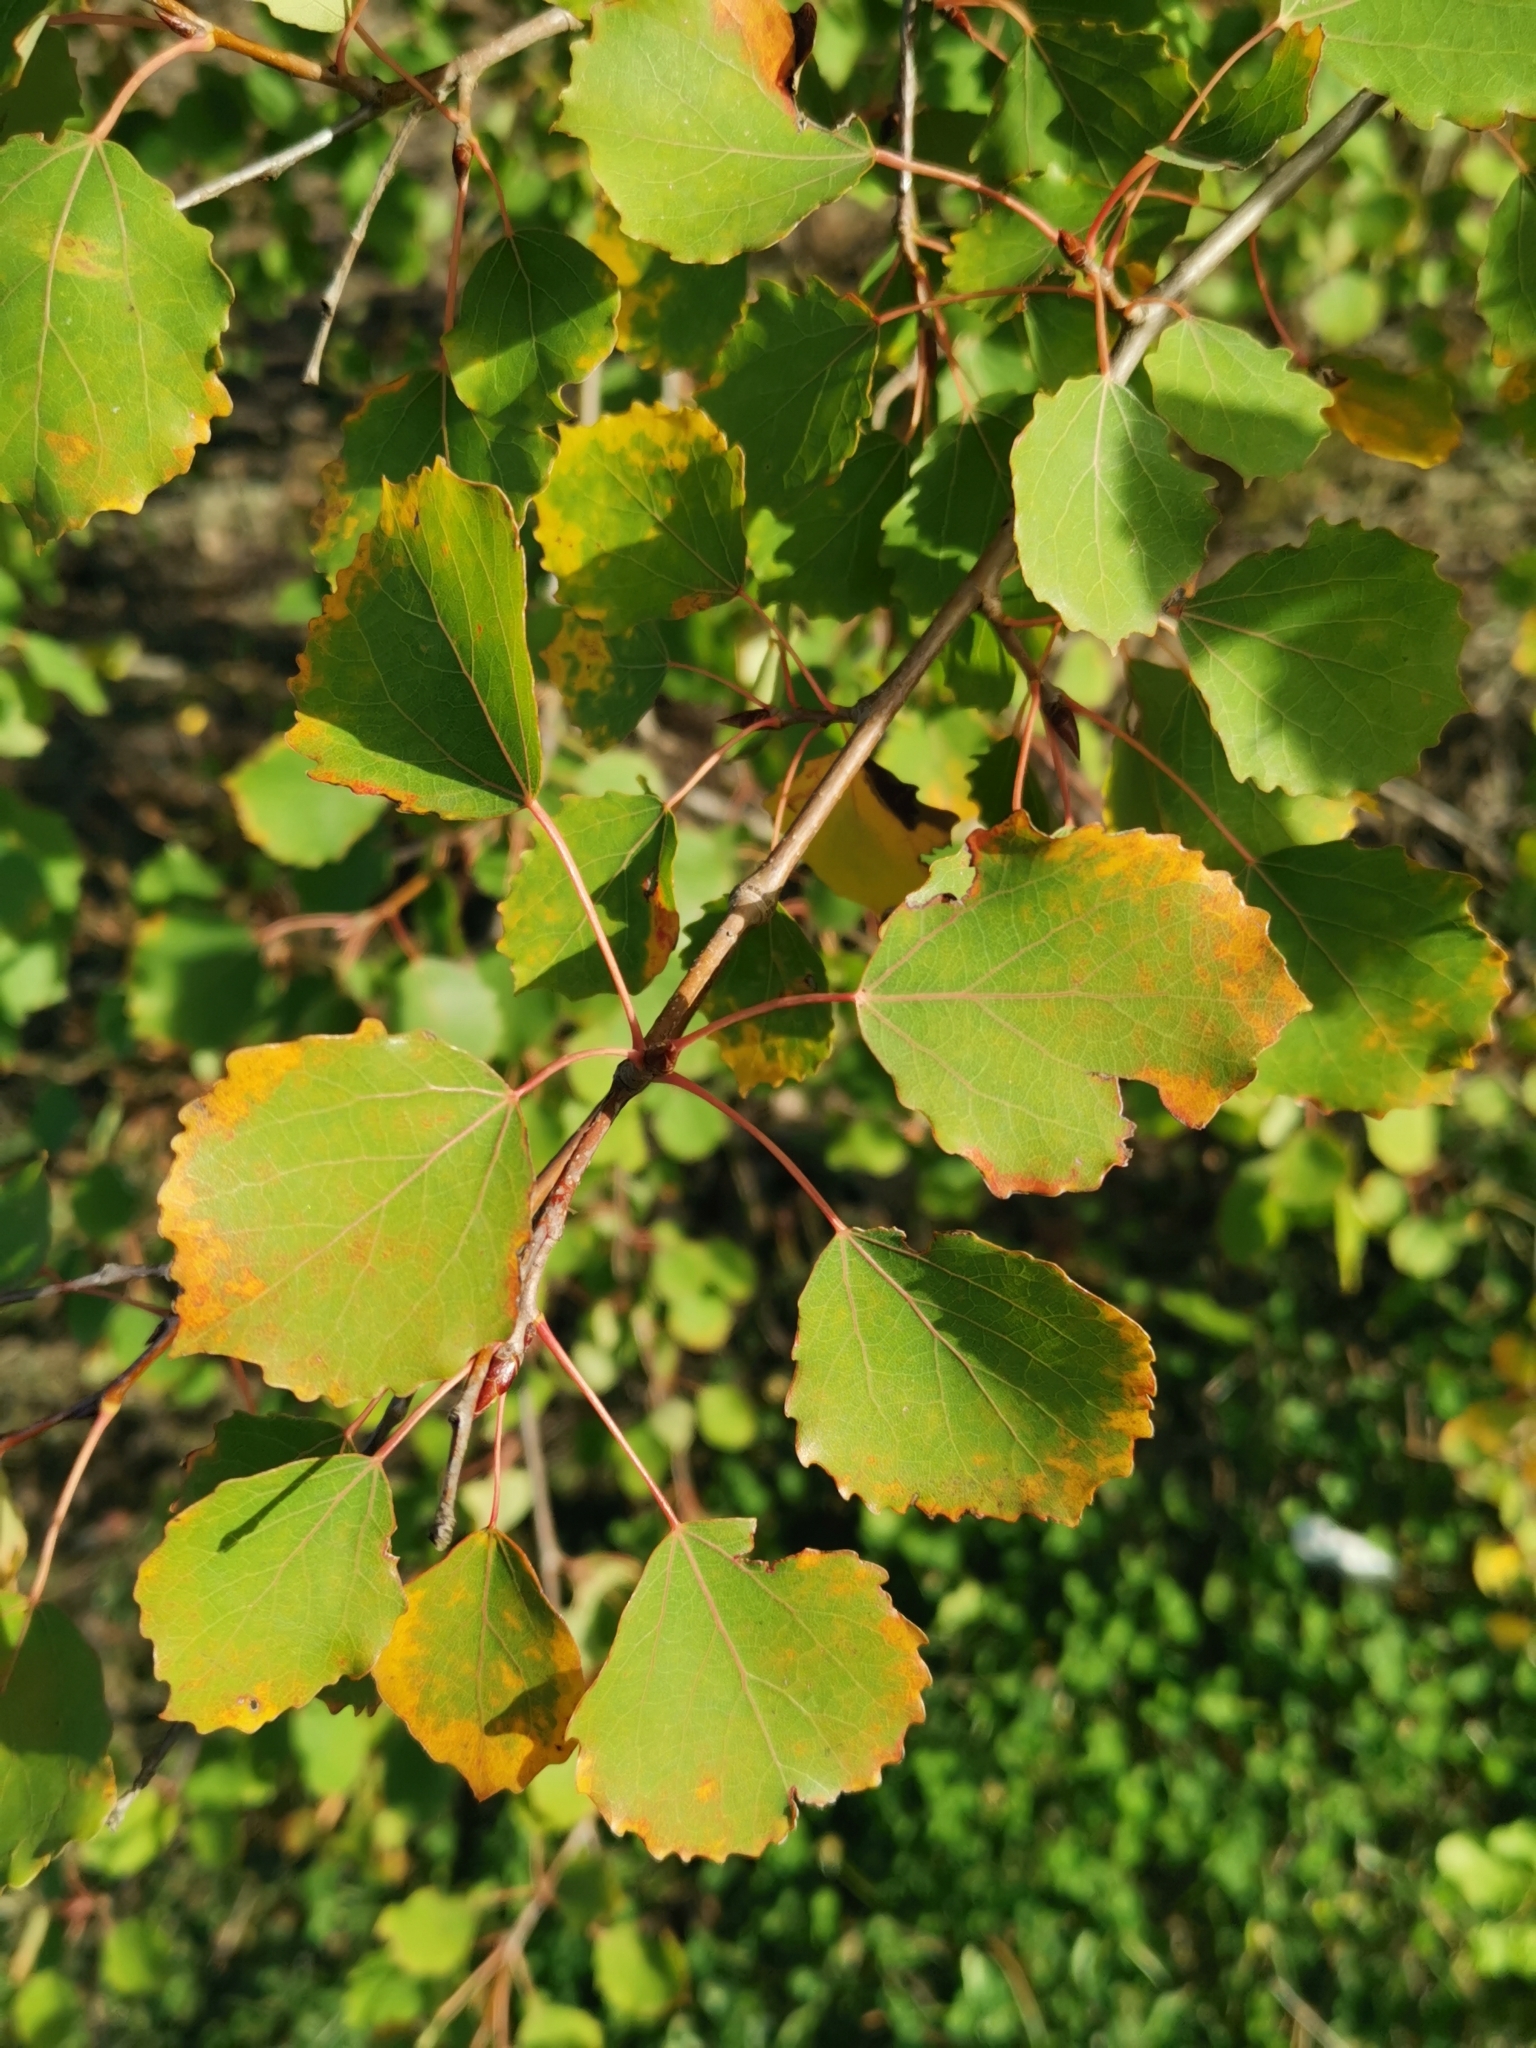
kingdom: Plantae
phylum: Tracheophyta
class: Magnoliopsida
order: Malpighiales
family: Salicaceae
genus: Populus
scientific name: Populus tremula
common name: European aspen
